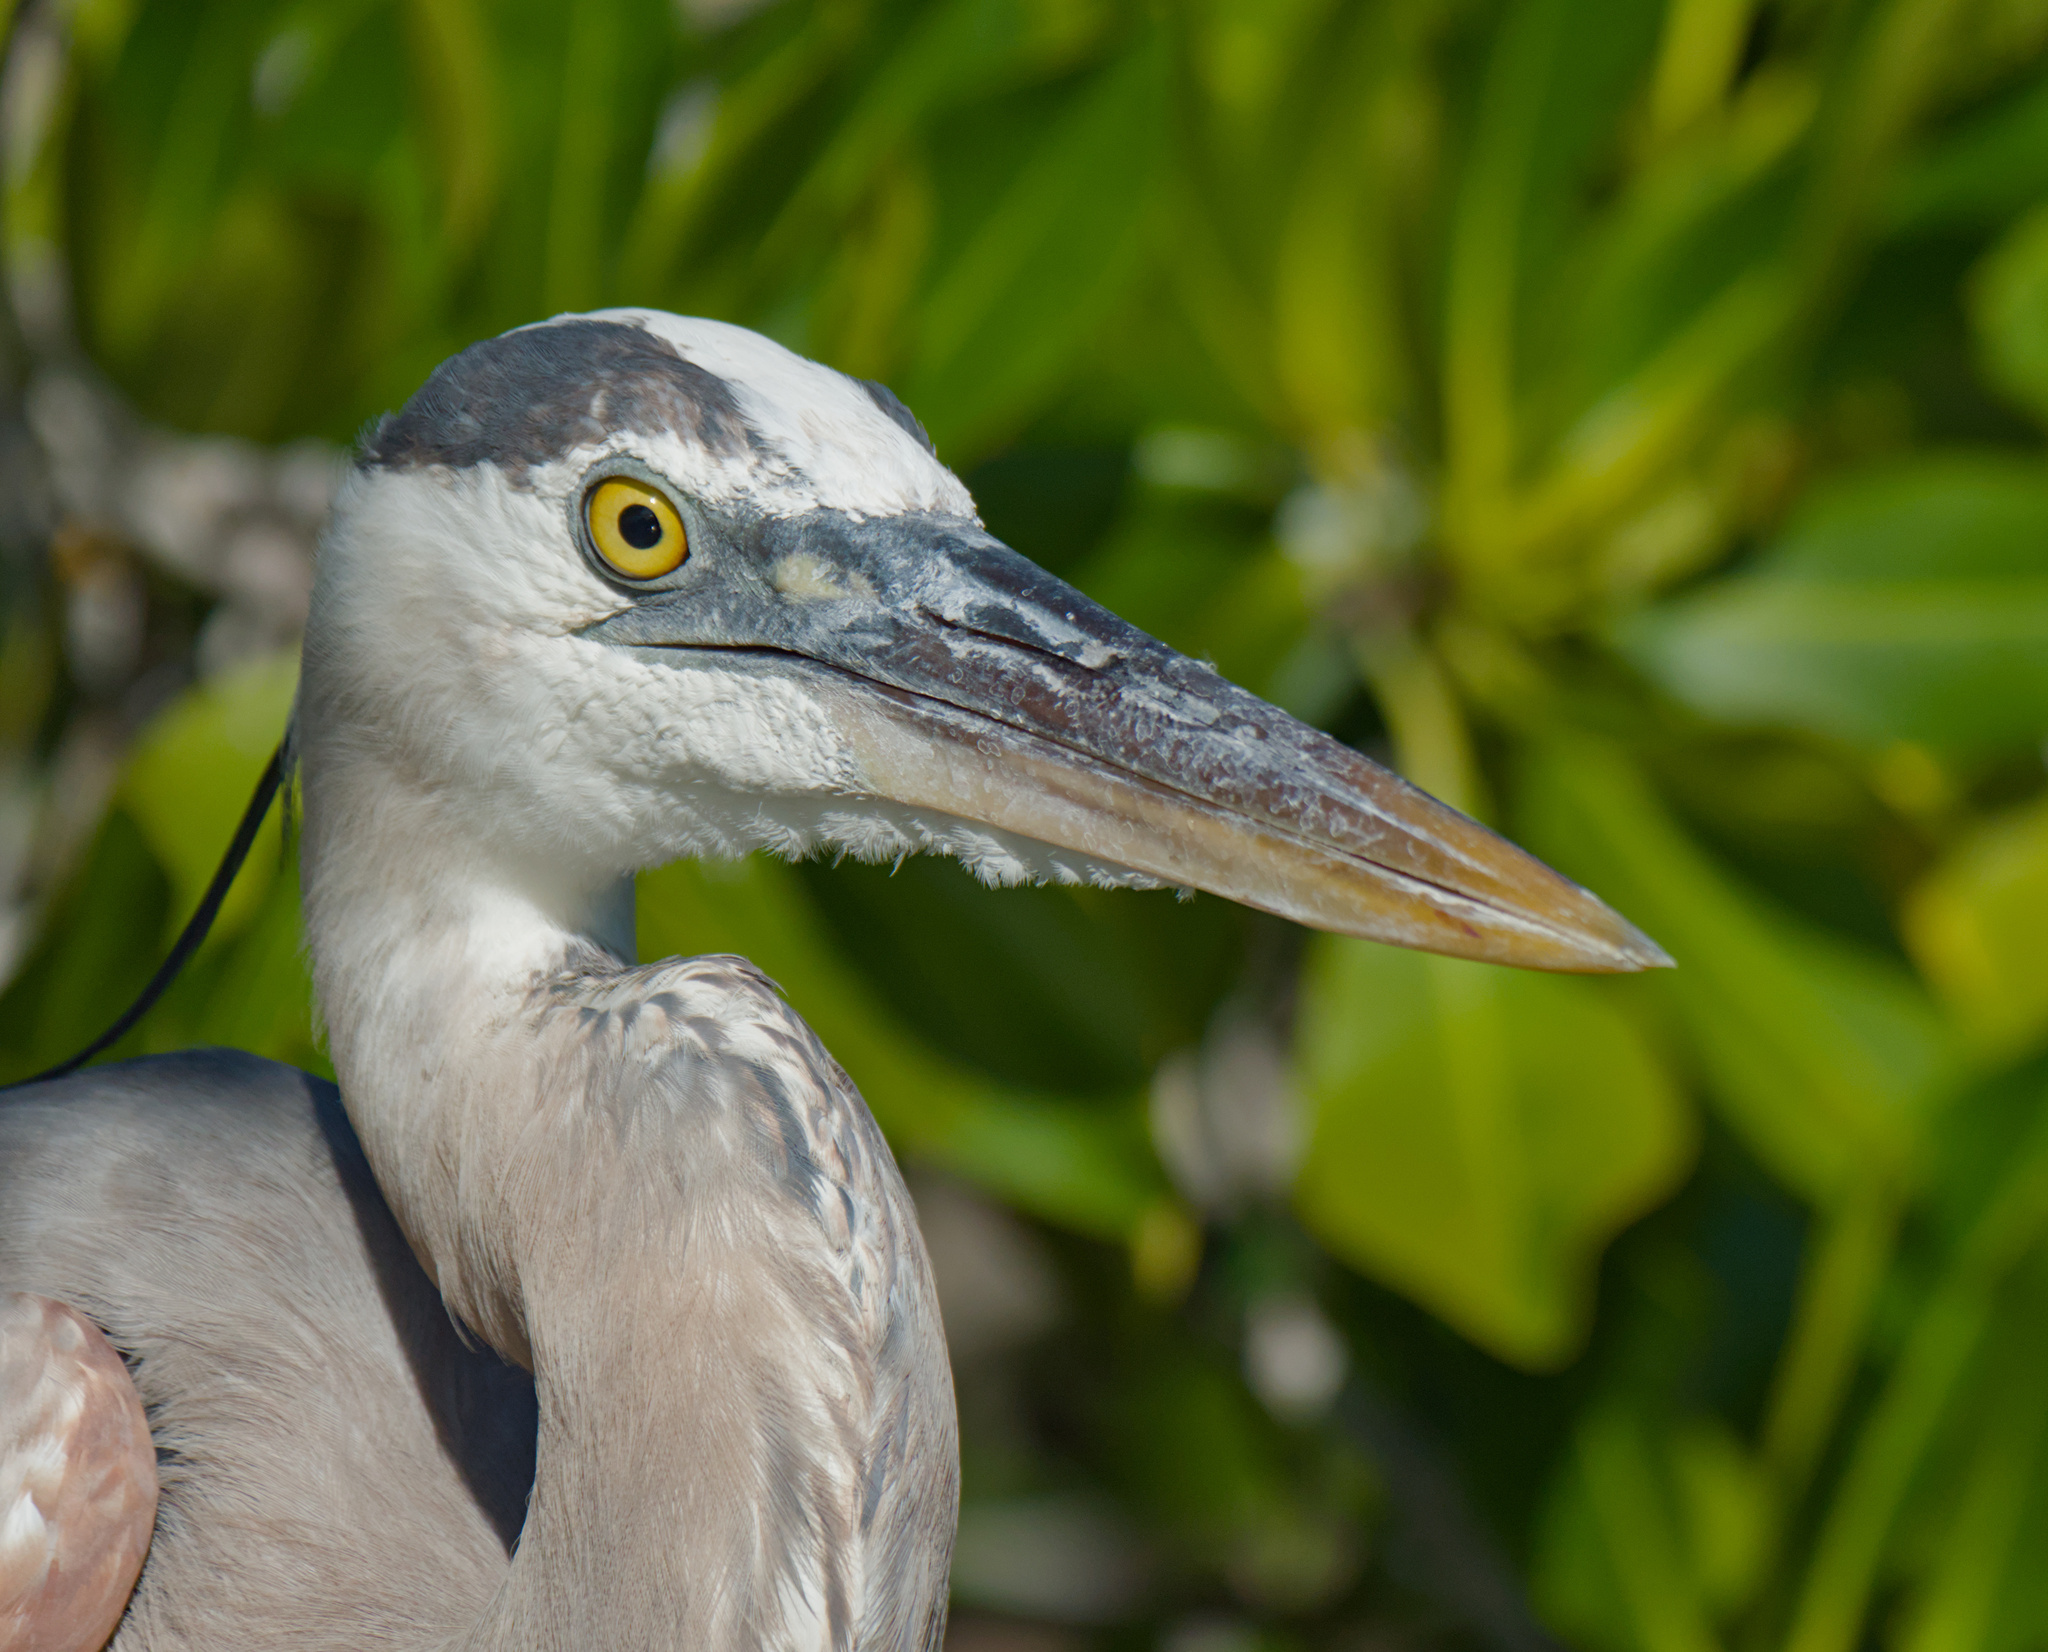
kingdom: Animalia
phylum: Chordata
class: Aves
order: Pelecaniformes
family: Ardeidae
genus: Ardea
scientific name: Ardea herodias
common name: Great blue heron
